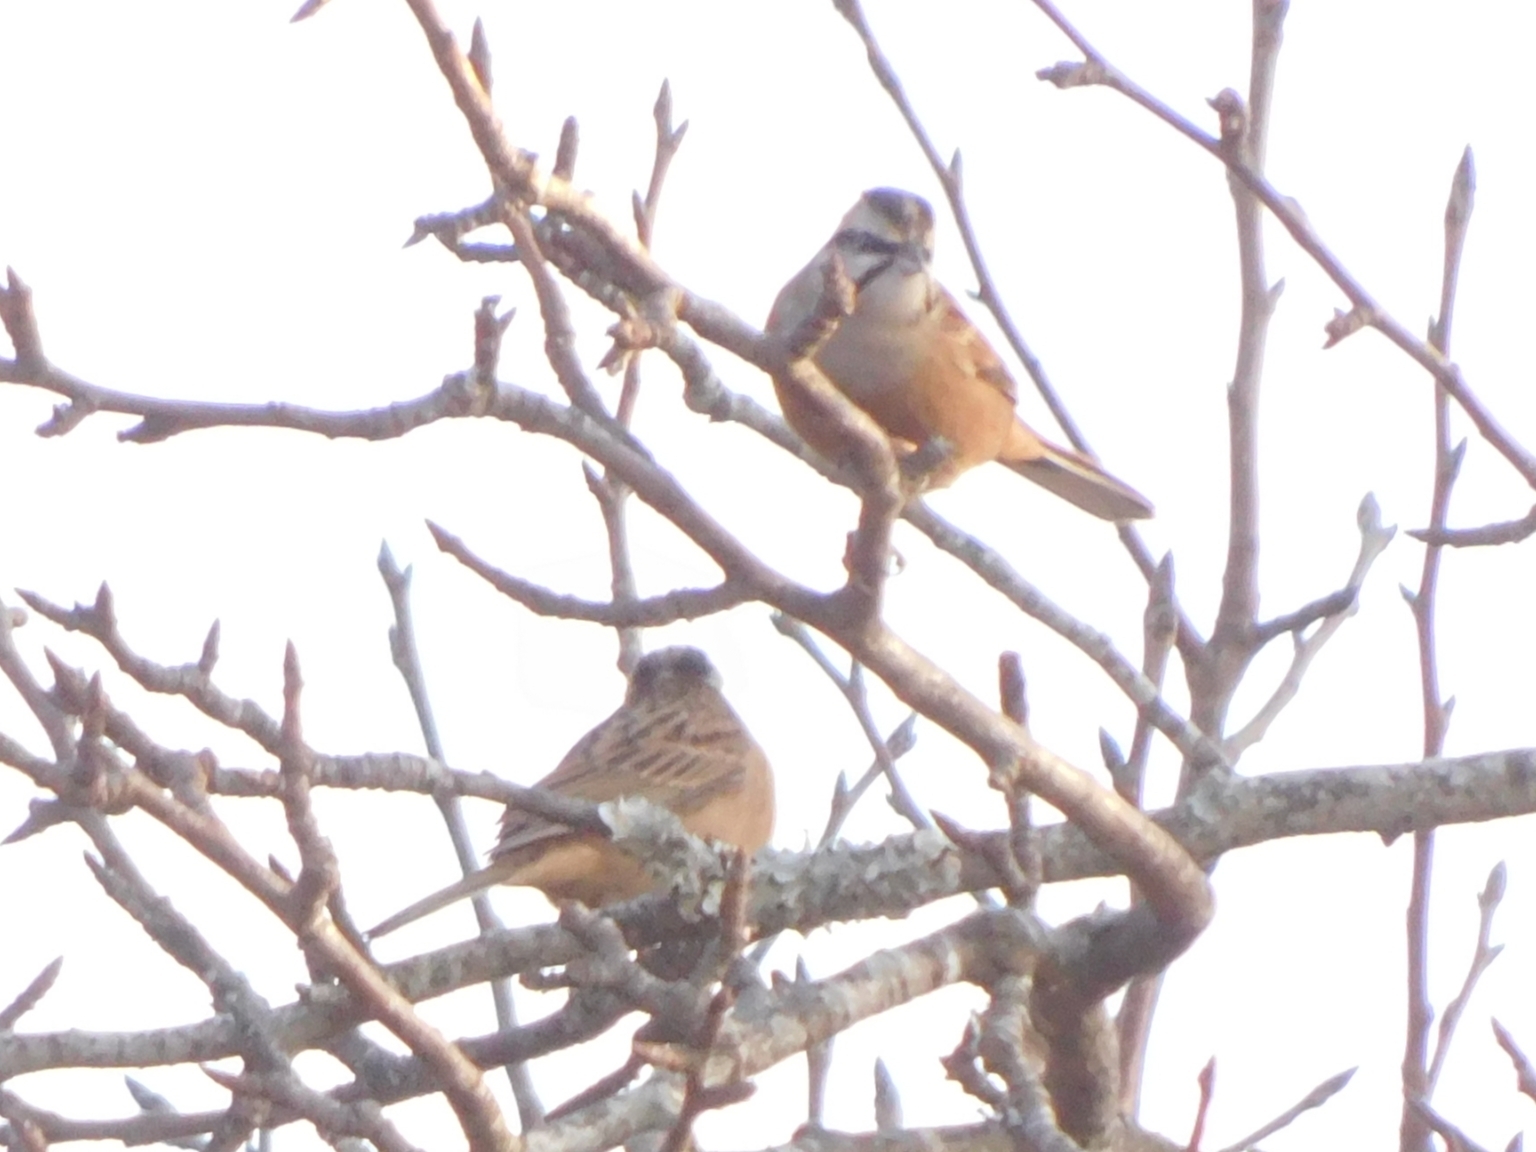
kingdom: Animalia
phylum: Chordata
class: Aves
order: Passeriformes
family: Emberizidae
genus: Emberiza
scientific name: Emberiza cia
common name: Rock bunting
